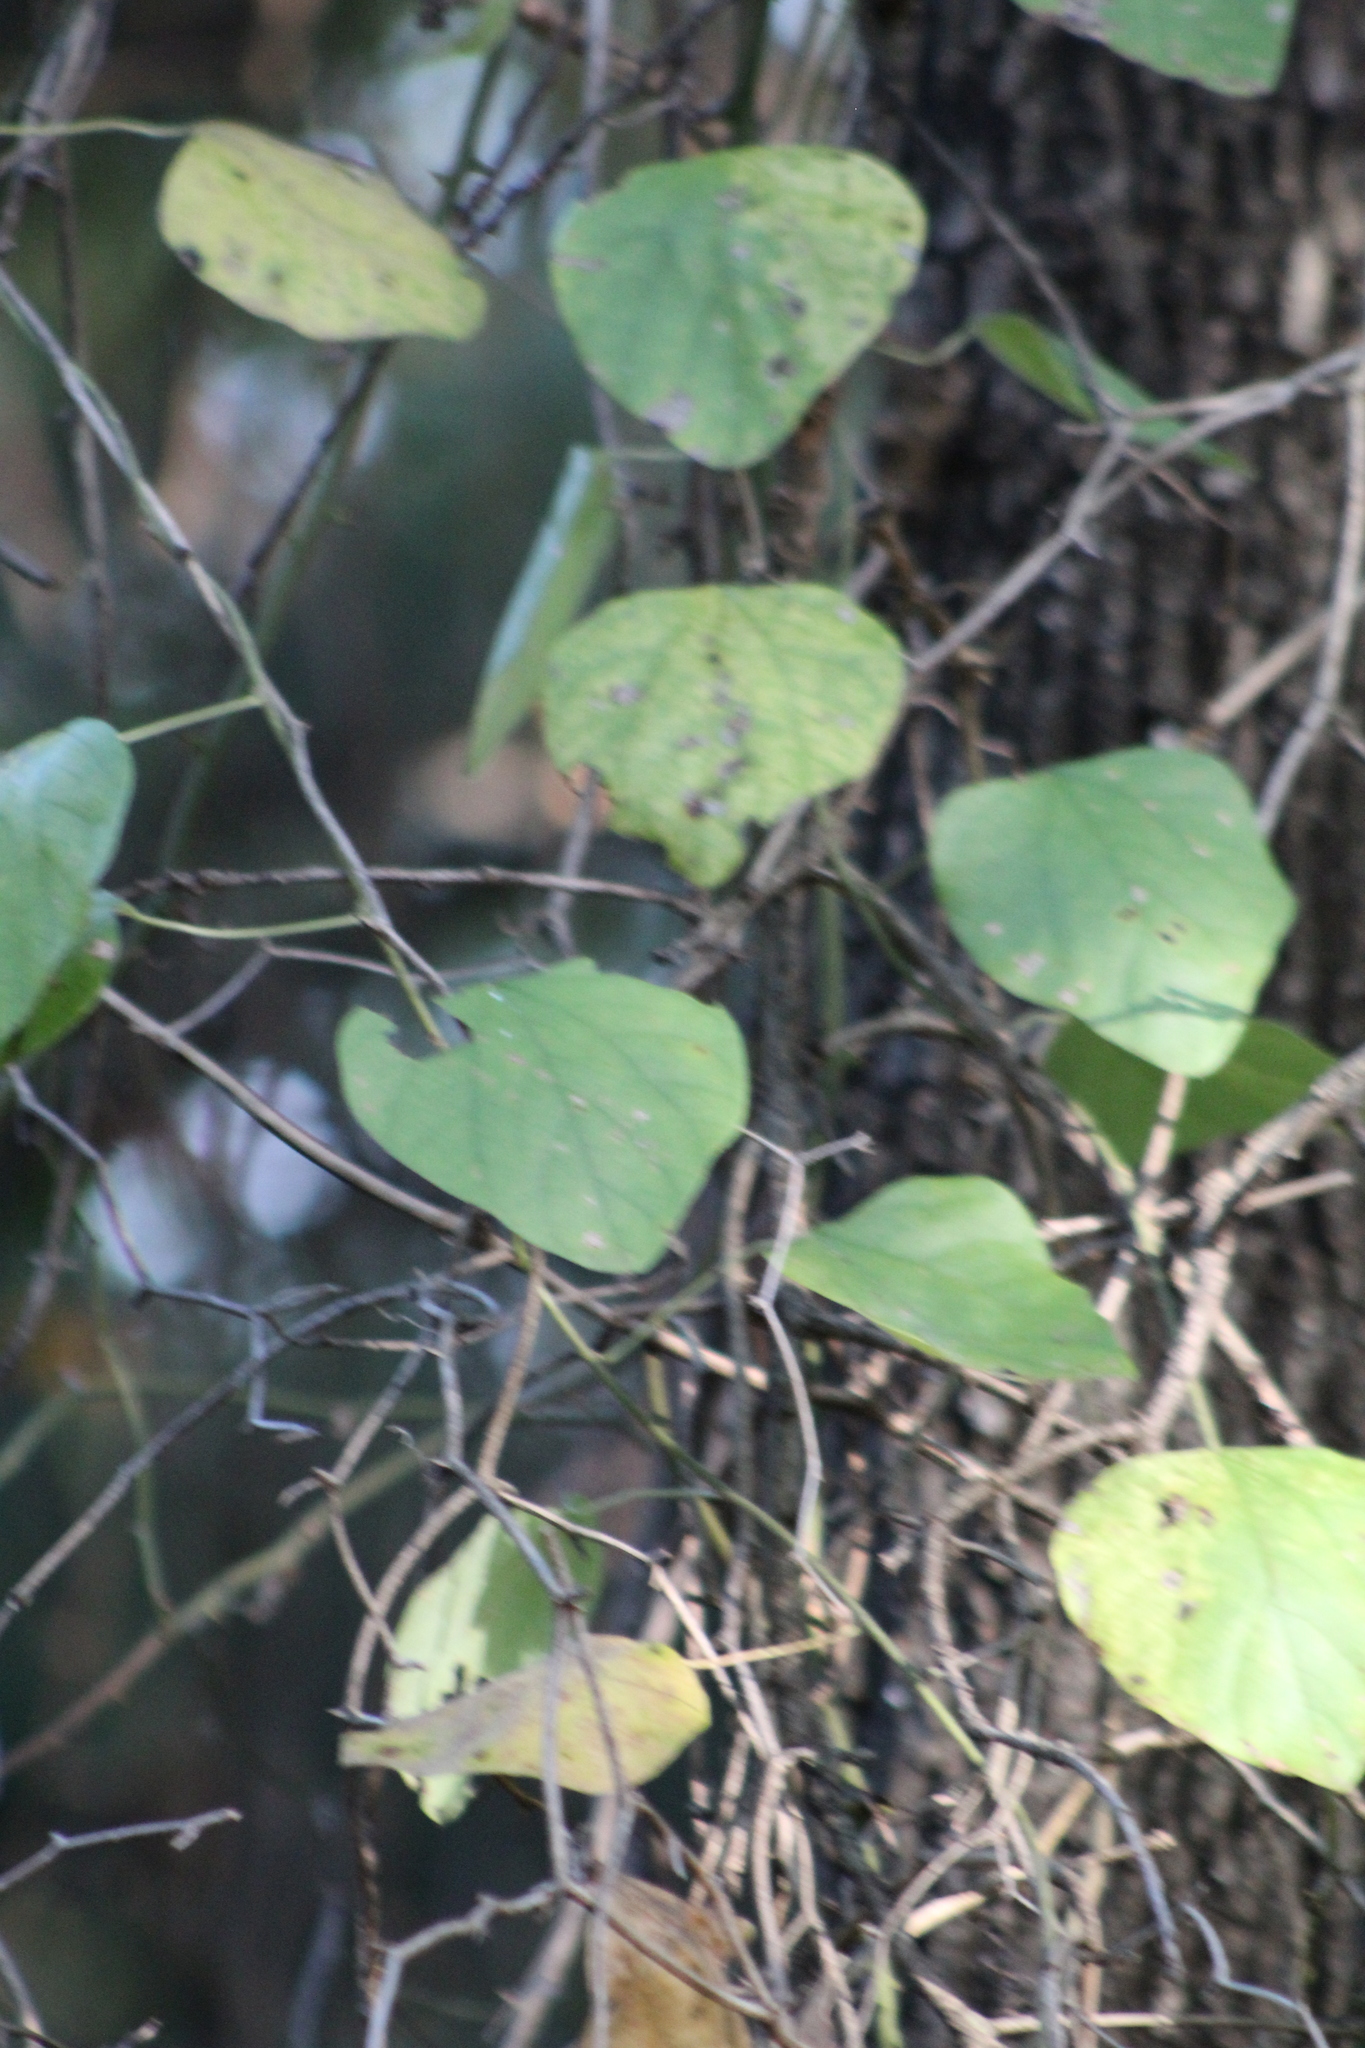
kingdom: Plantae
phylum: Tracheophyta
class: Magnoliopsida
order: Ranunculales
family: Menispermaceae
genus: Cocculus
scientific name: Cocculus carolinus
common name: Carolina moonseed
